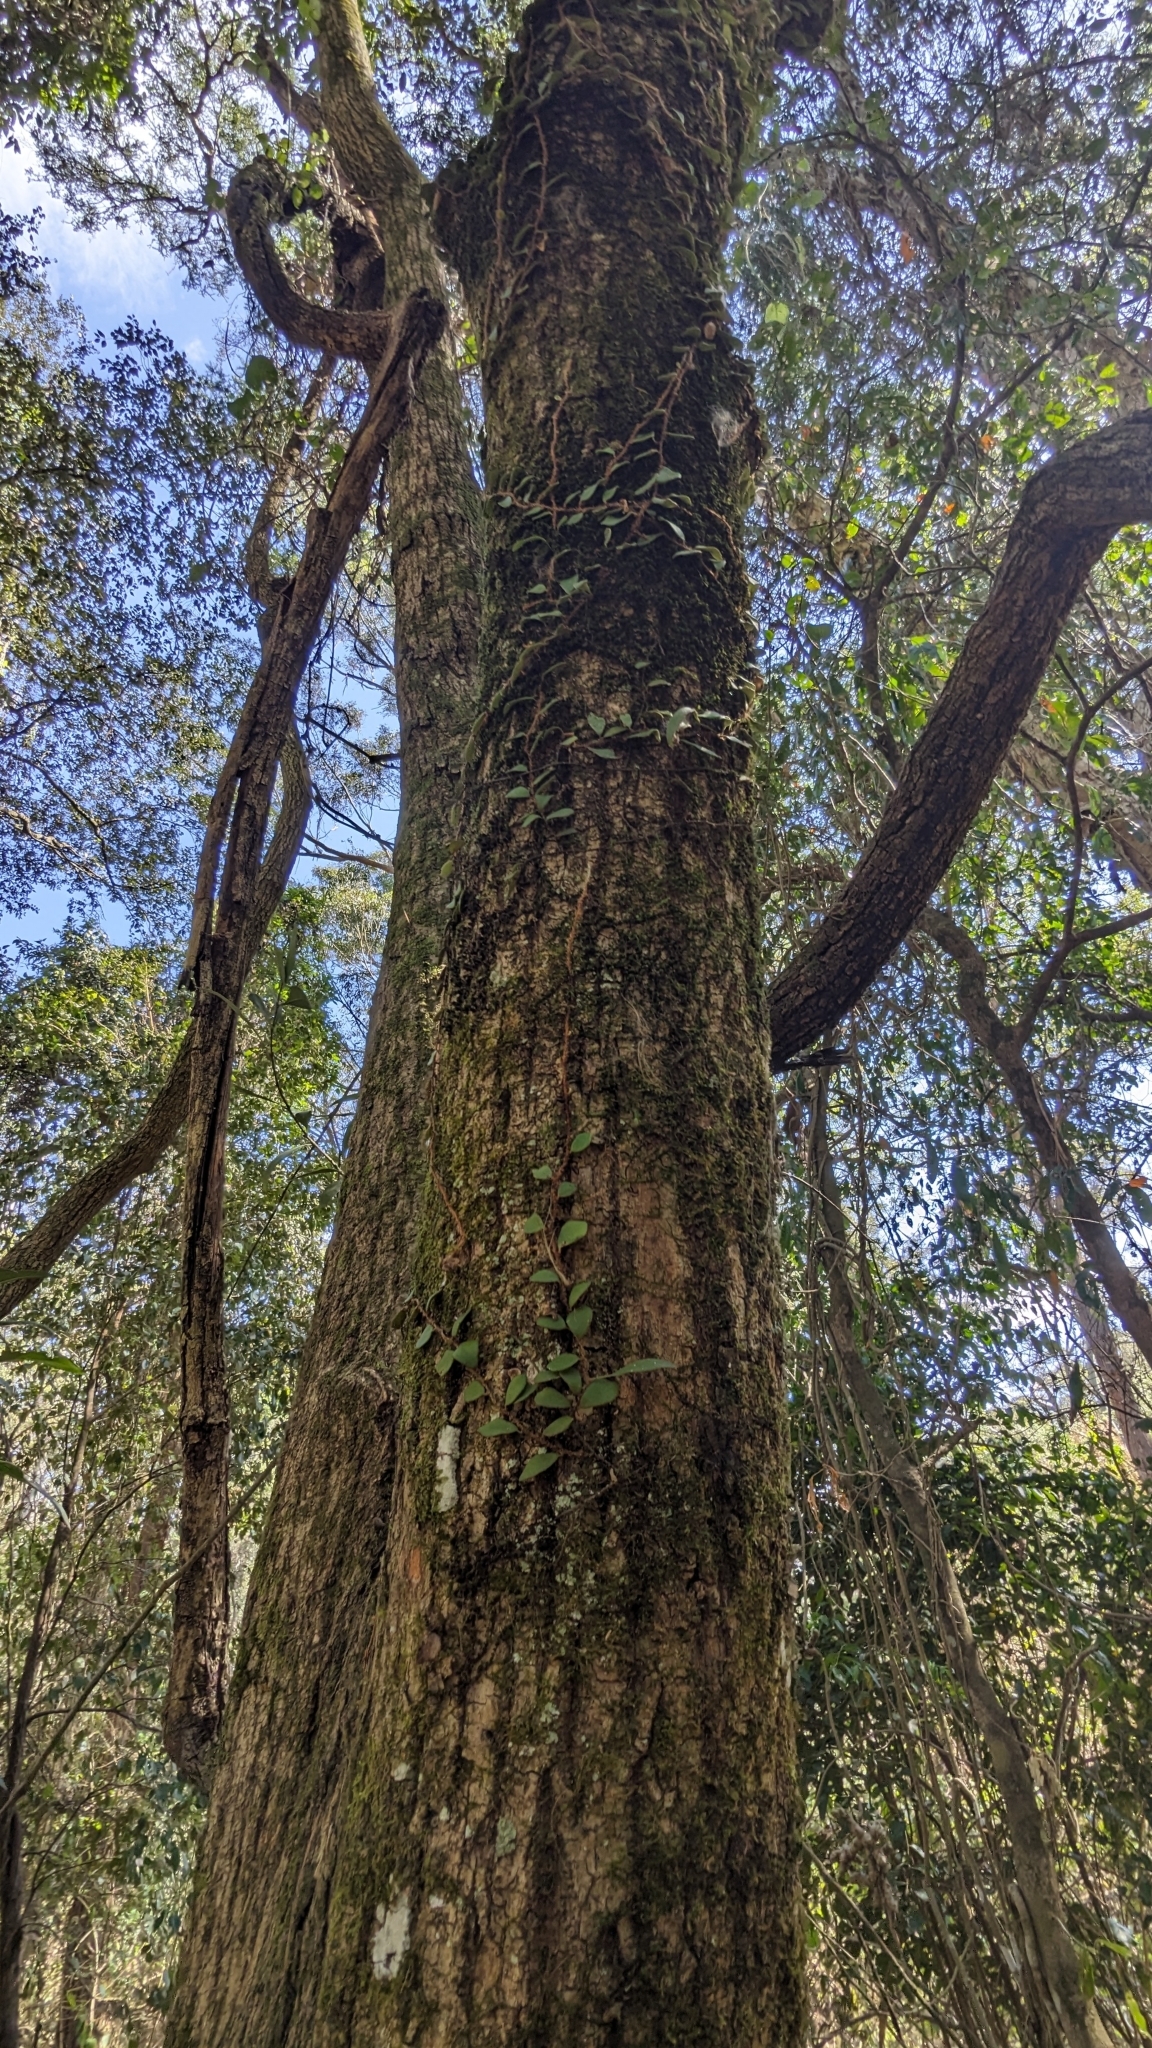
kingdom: Plantae
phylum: Tracheophyta
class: Polypodiopsida
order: Polypodiales
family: Polypodiaceae
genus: Pyrrosia
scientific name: Pyrrosia rupestris
